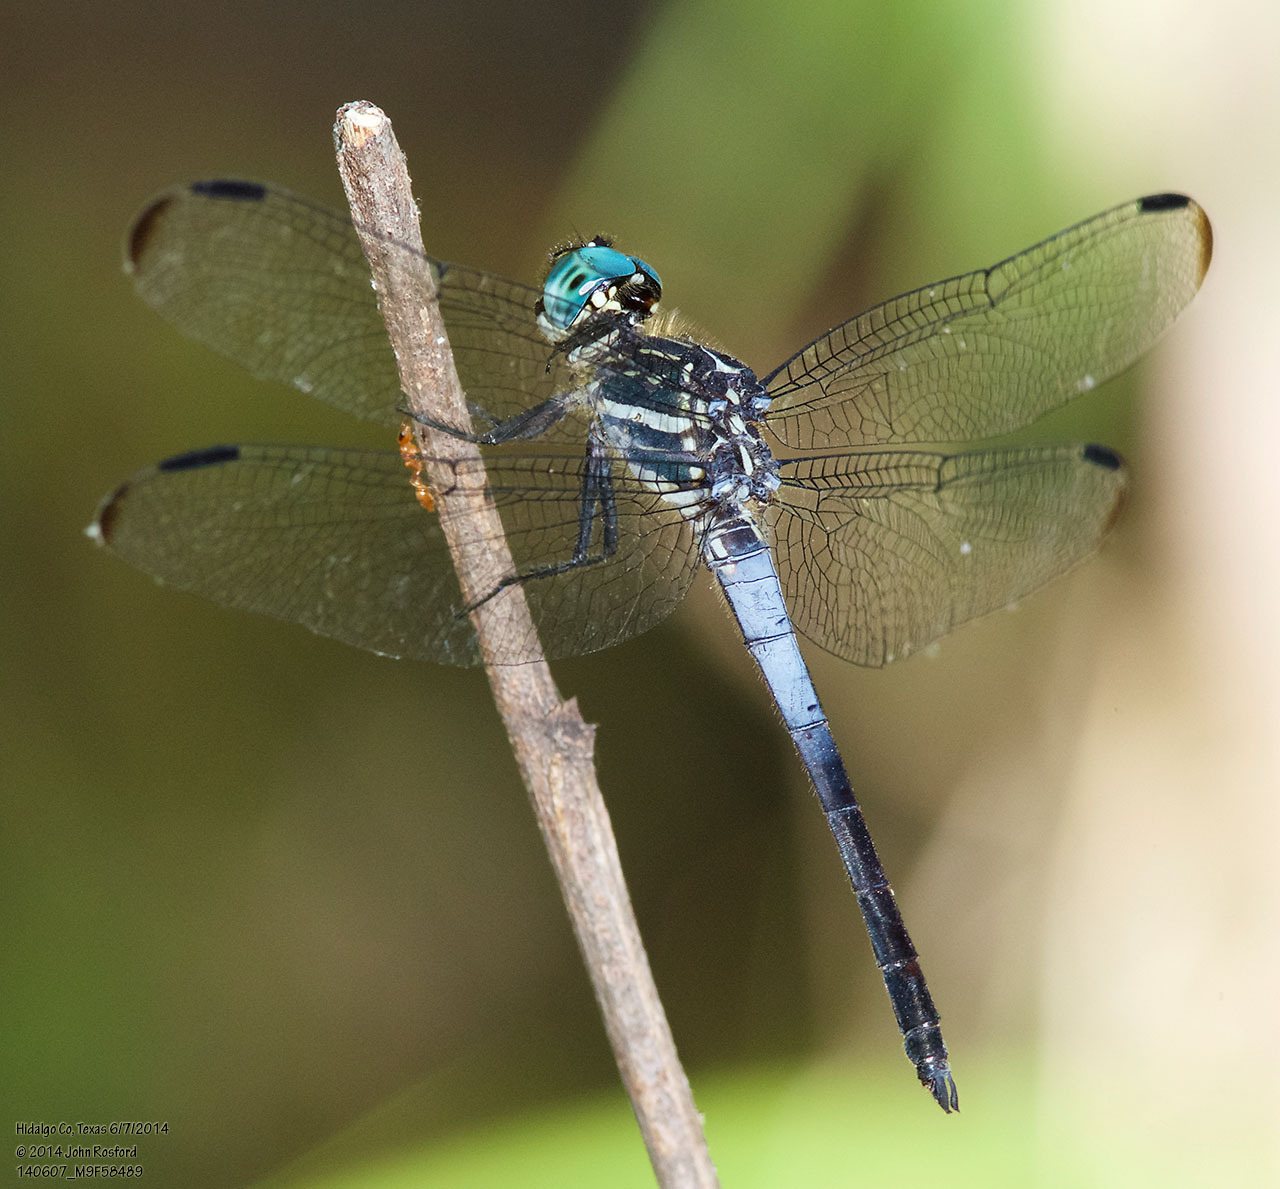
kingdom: Animalia
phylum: Arthropoda
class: Insecta
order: Odonata
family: Libellulidae
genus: Cannaphila
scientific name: Cannaphila insularis
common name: Gray-waisted skimmer
